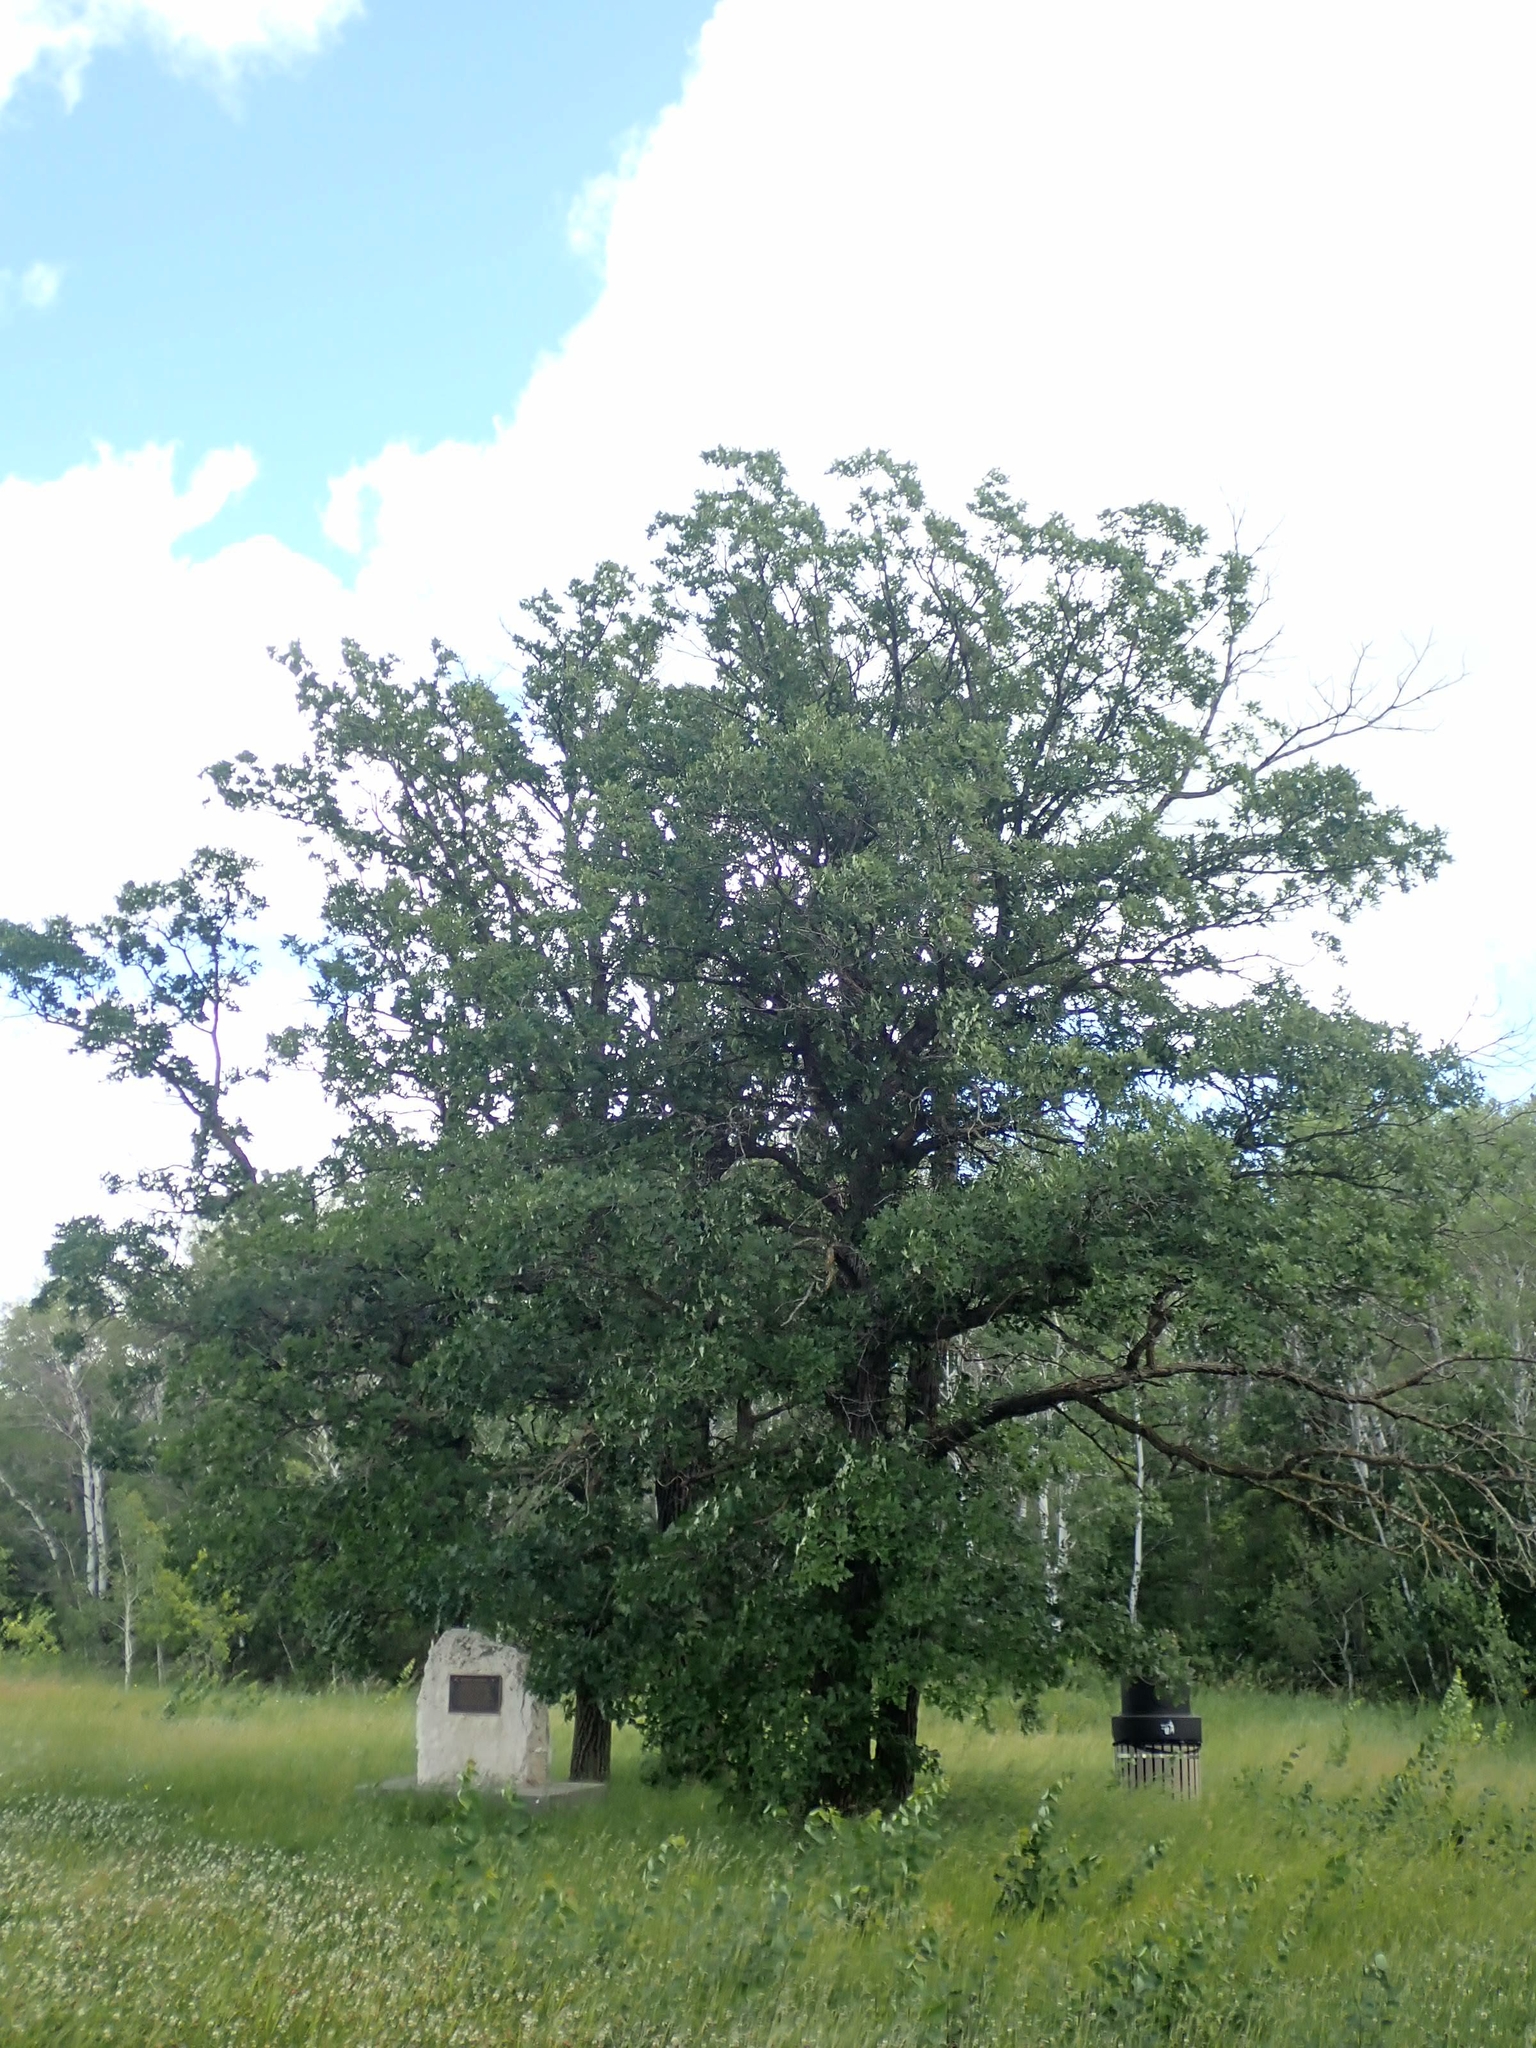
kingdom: Plantae
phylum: Tracheophyta
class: Magnoliopsida
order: Fagales
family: Fagaceae
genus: Quercus
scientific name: Quercus macrocarpa
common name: Bur oak
